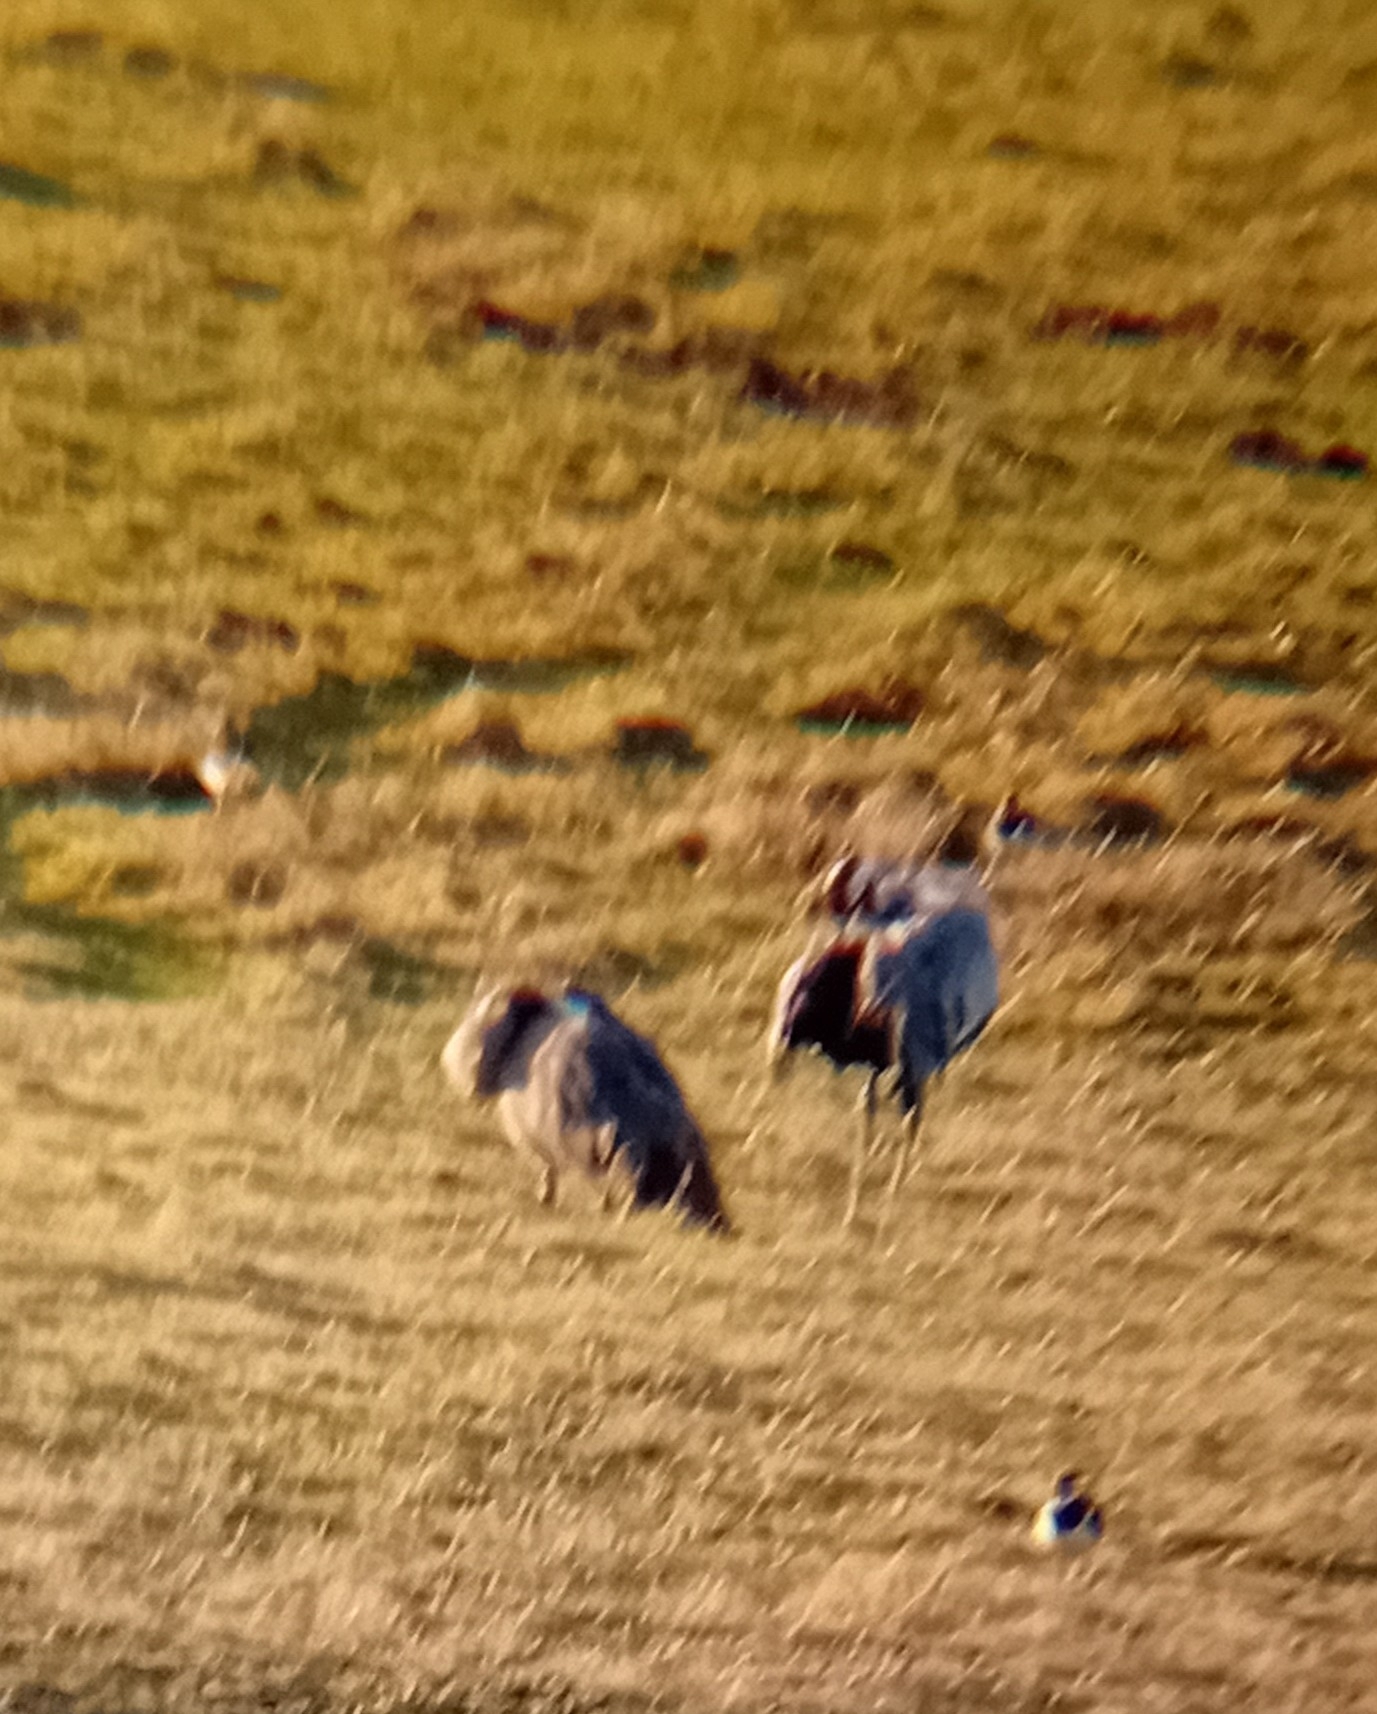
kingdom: Animalia
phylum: Chordata
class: Aves
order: Gruiformes
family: Gruidae
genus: Grus
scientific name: Grus grus
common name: Common crane
